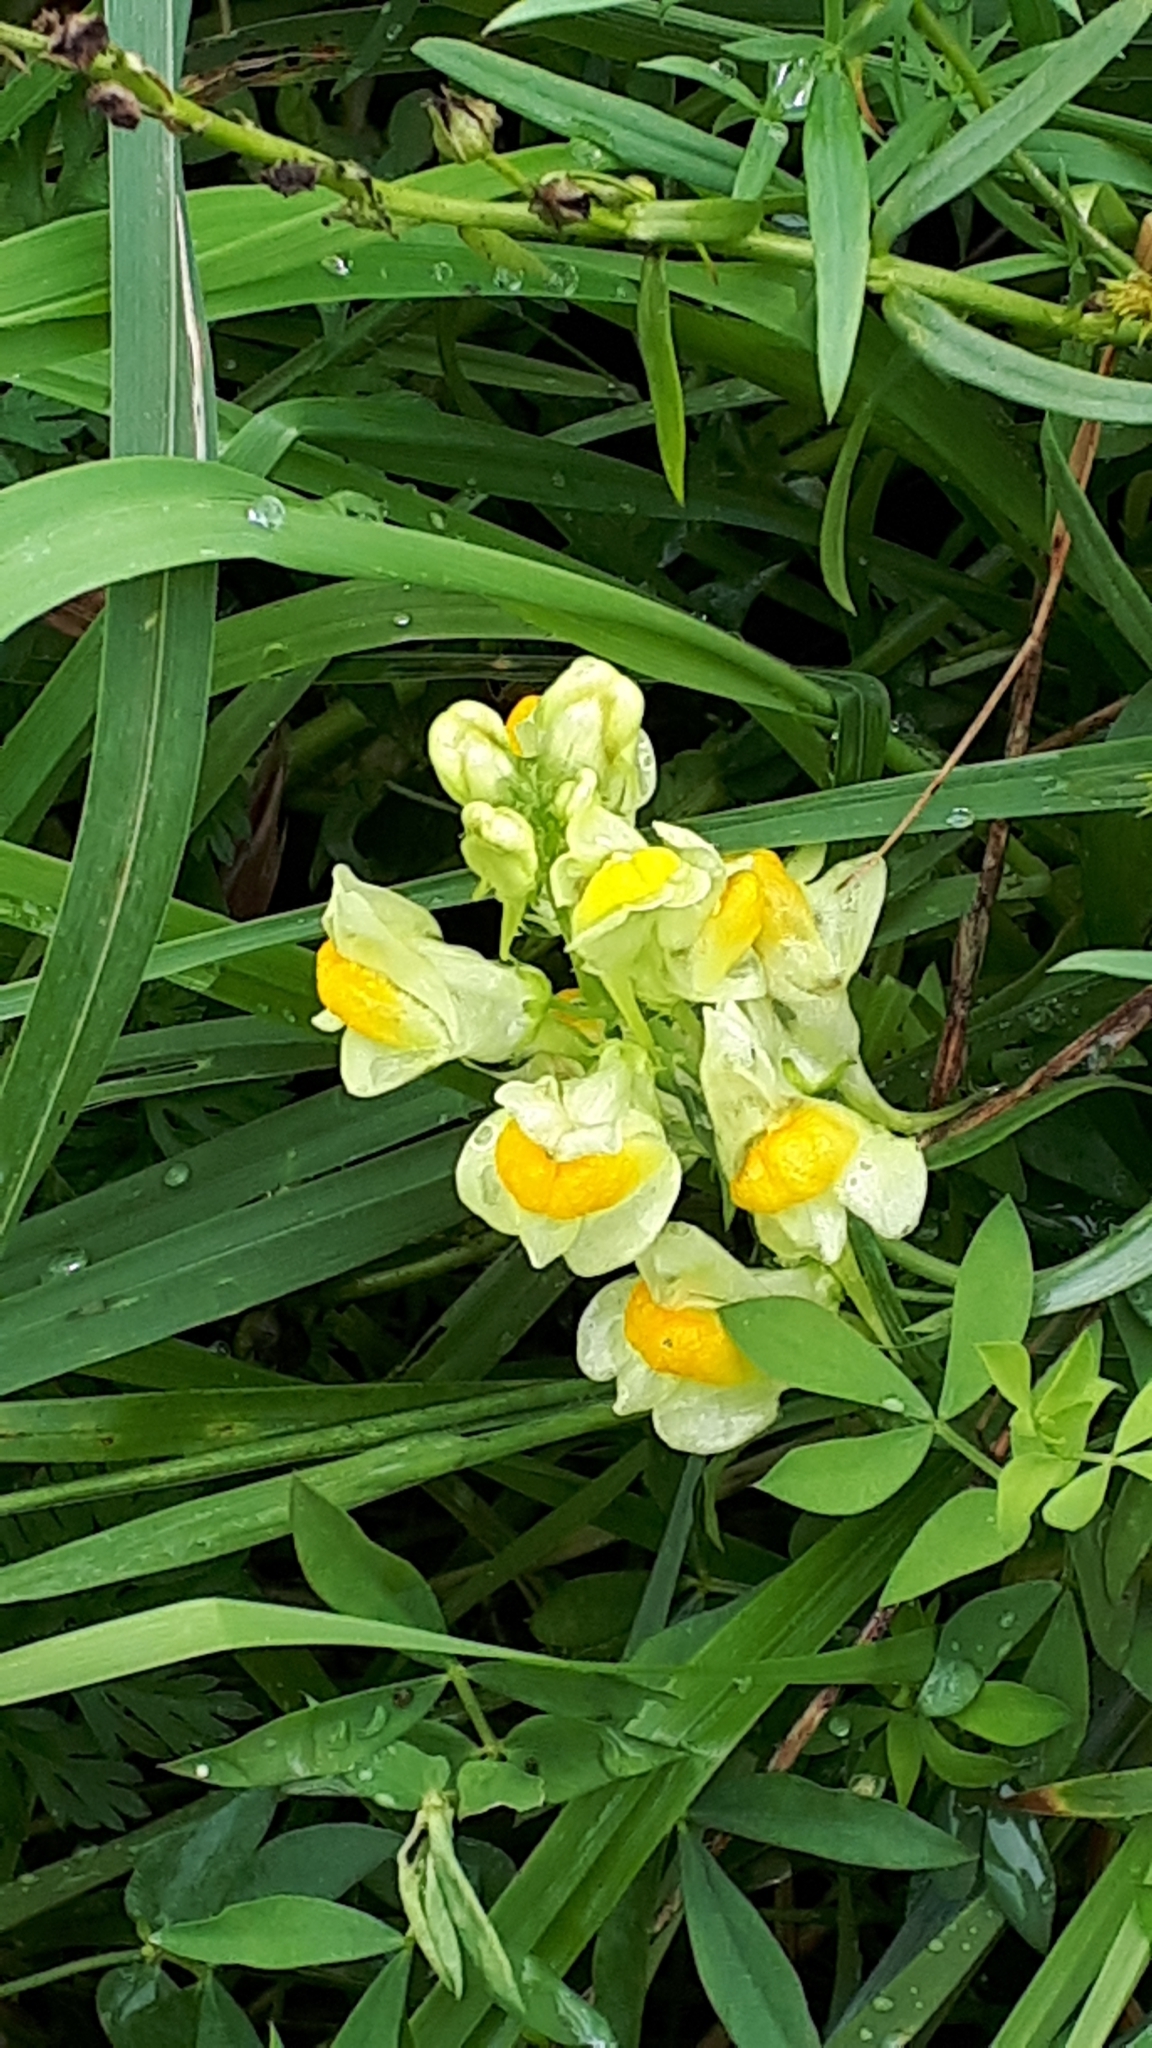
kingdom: Plantae
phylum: Tracheophyta
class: Magnoliopsida
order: Lamiales
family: Plantaginaceae
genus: Linaria
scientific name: Linaria vulgaris
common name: Butter and eggs
